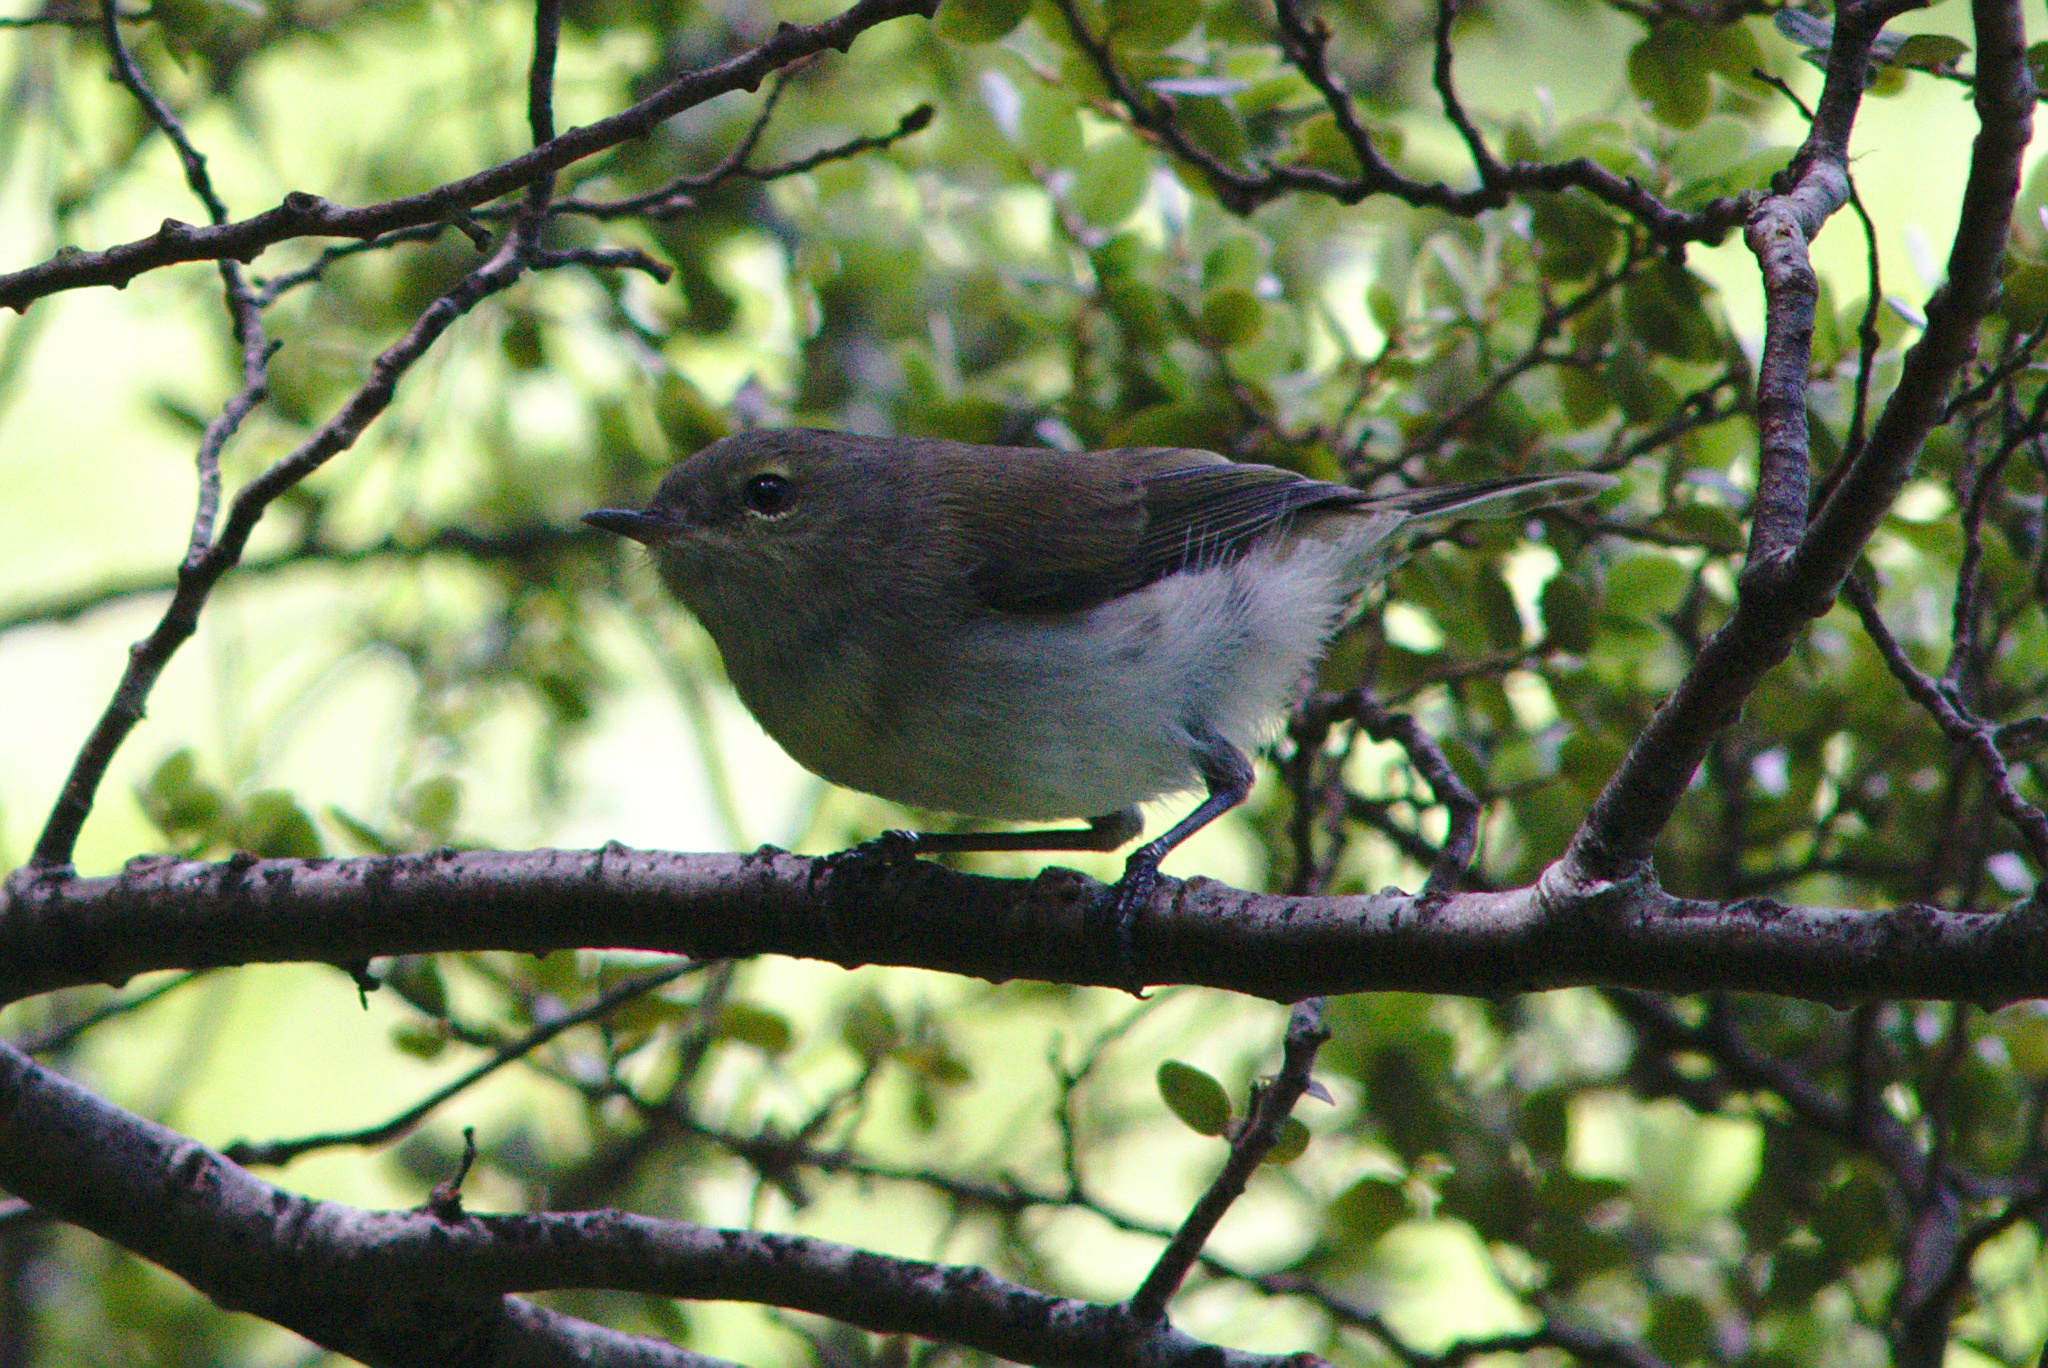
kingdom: Animalia
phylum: Chordata
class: Aves
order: Passeriformes
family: Acanthizidae
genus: Gerygone
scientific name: Gerygone igata
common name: Grey gerygone
